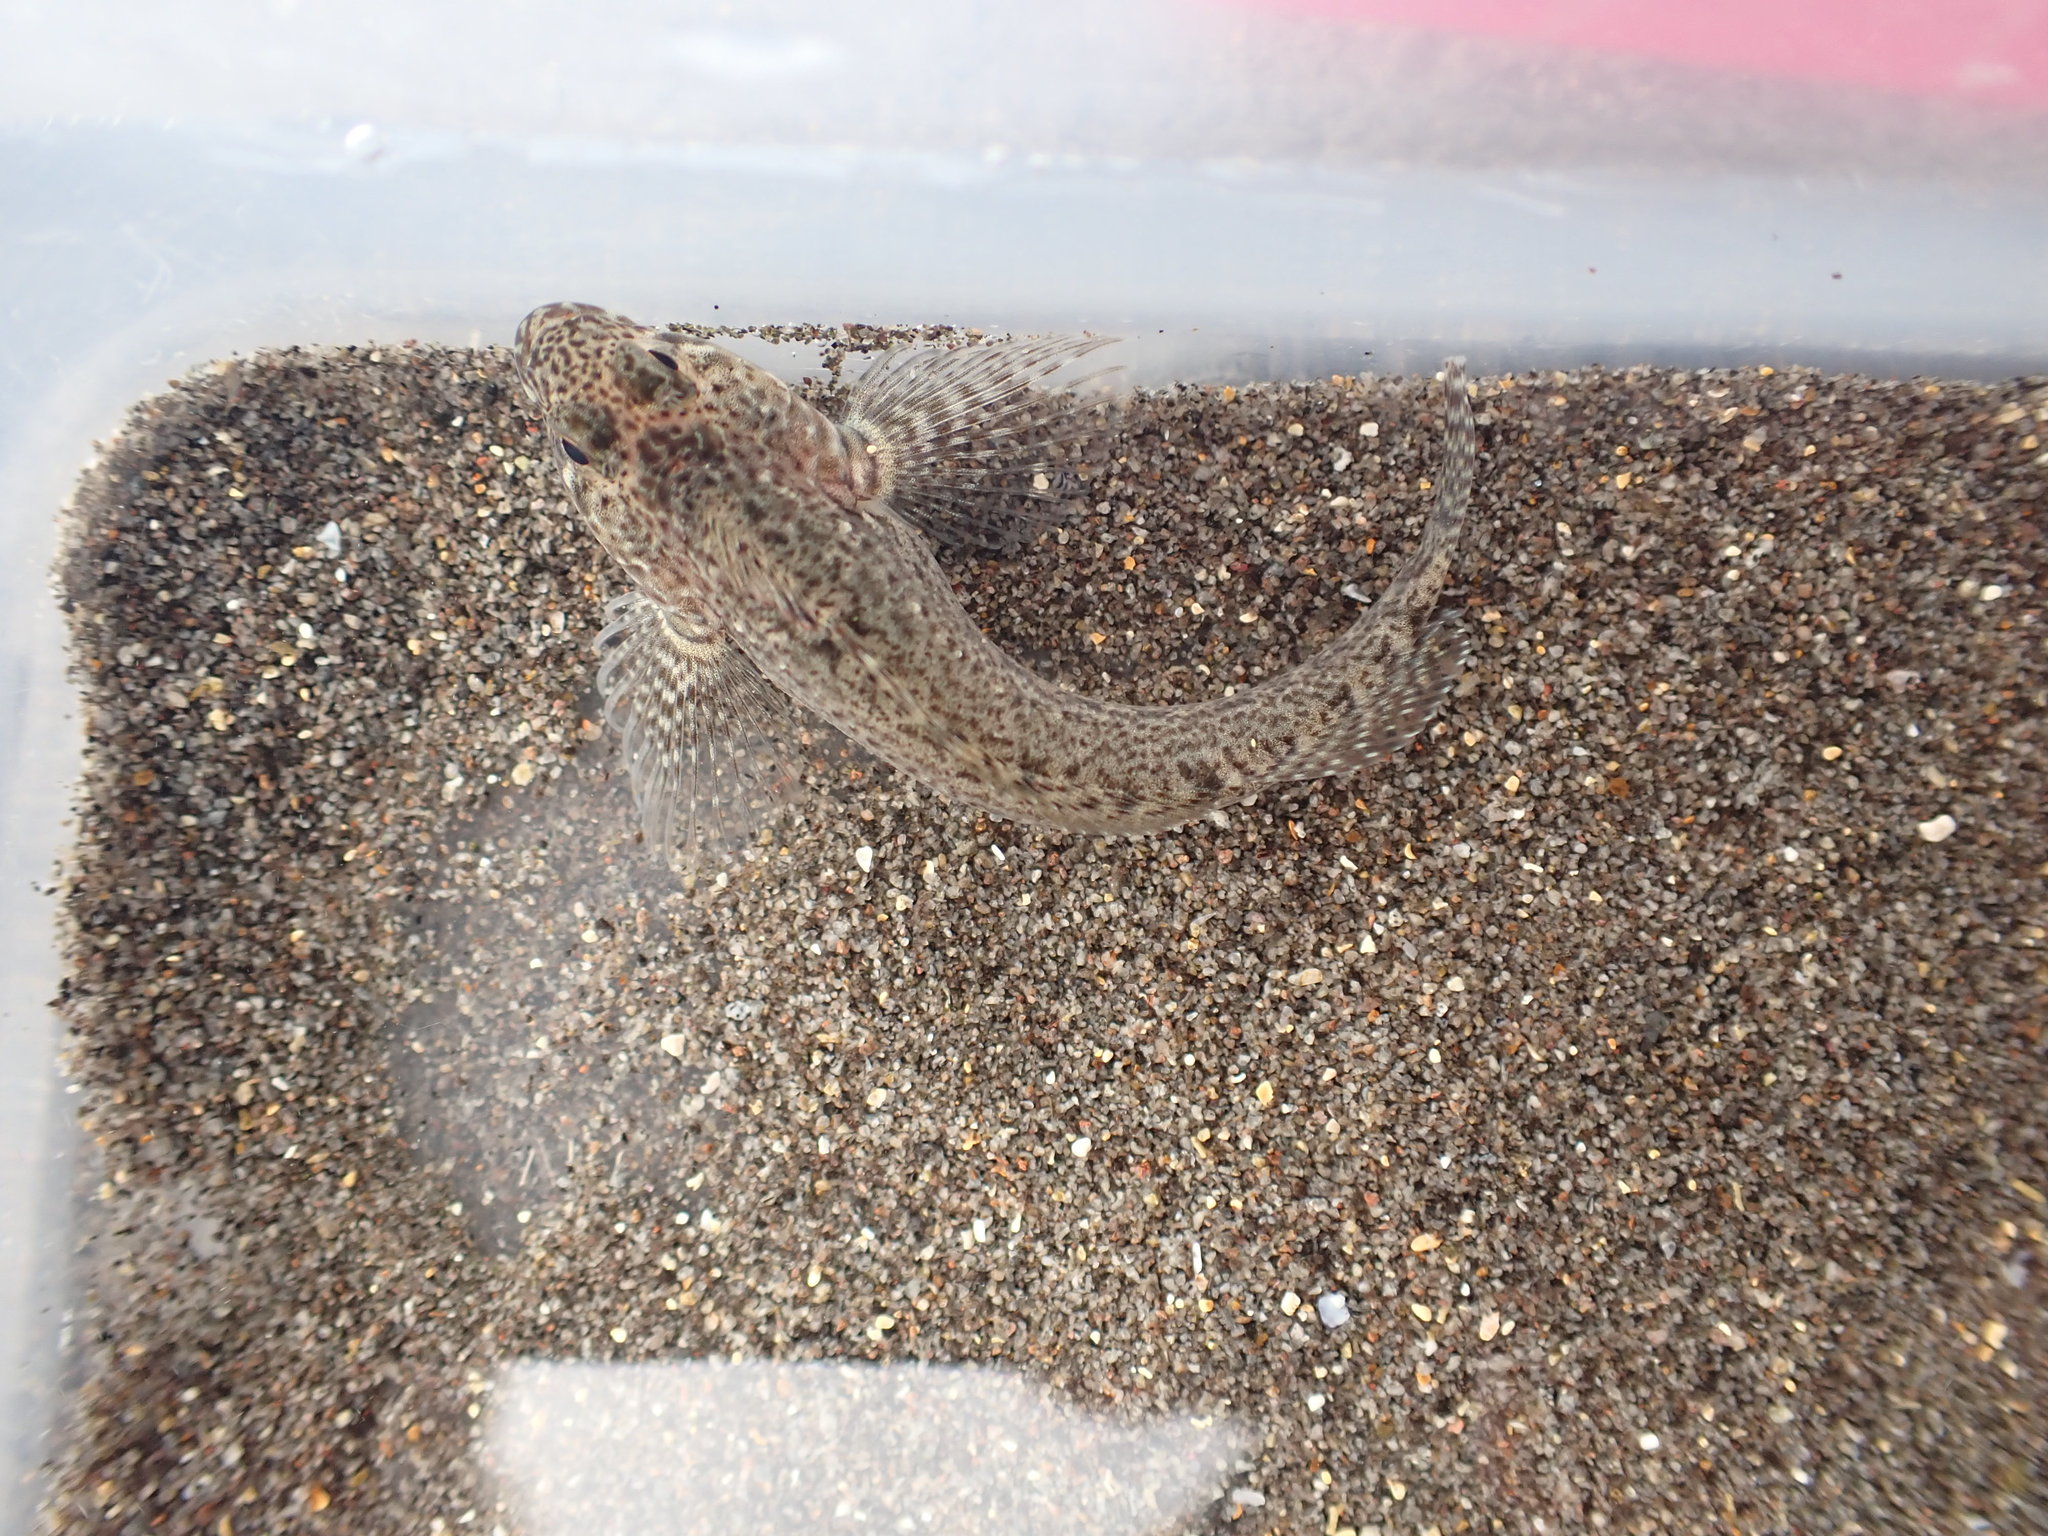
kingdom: Animalia
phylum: Chordata
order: Perciformes
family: Tripterygiidae
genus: Forsterygion
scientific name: Forsterygion gymnotum
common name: Multifid-tentacled robust triplefin
